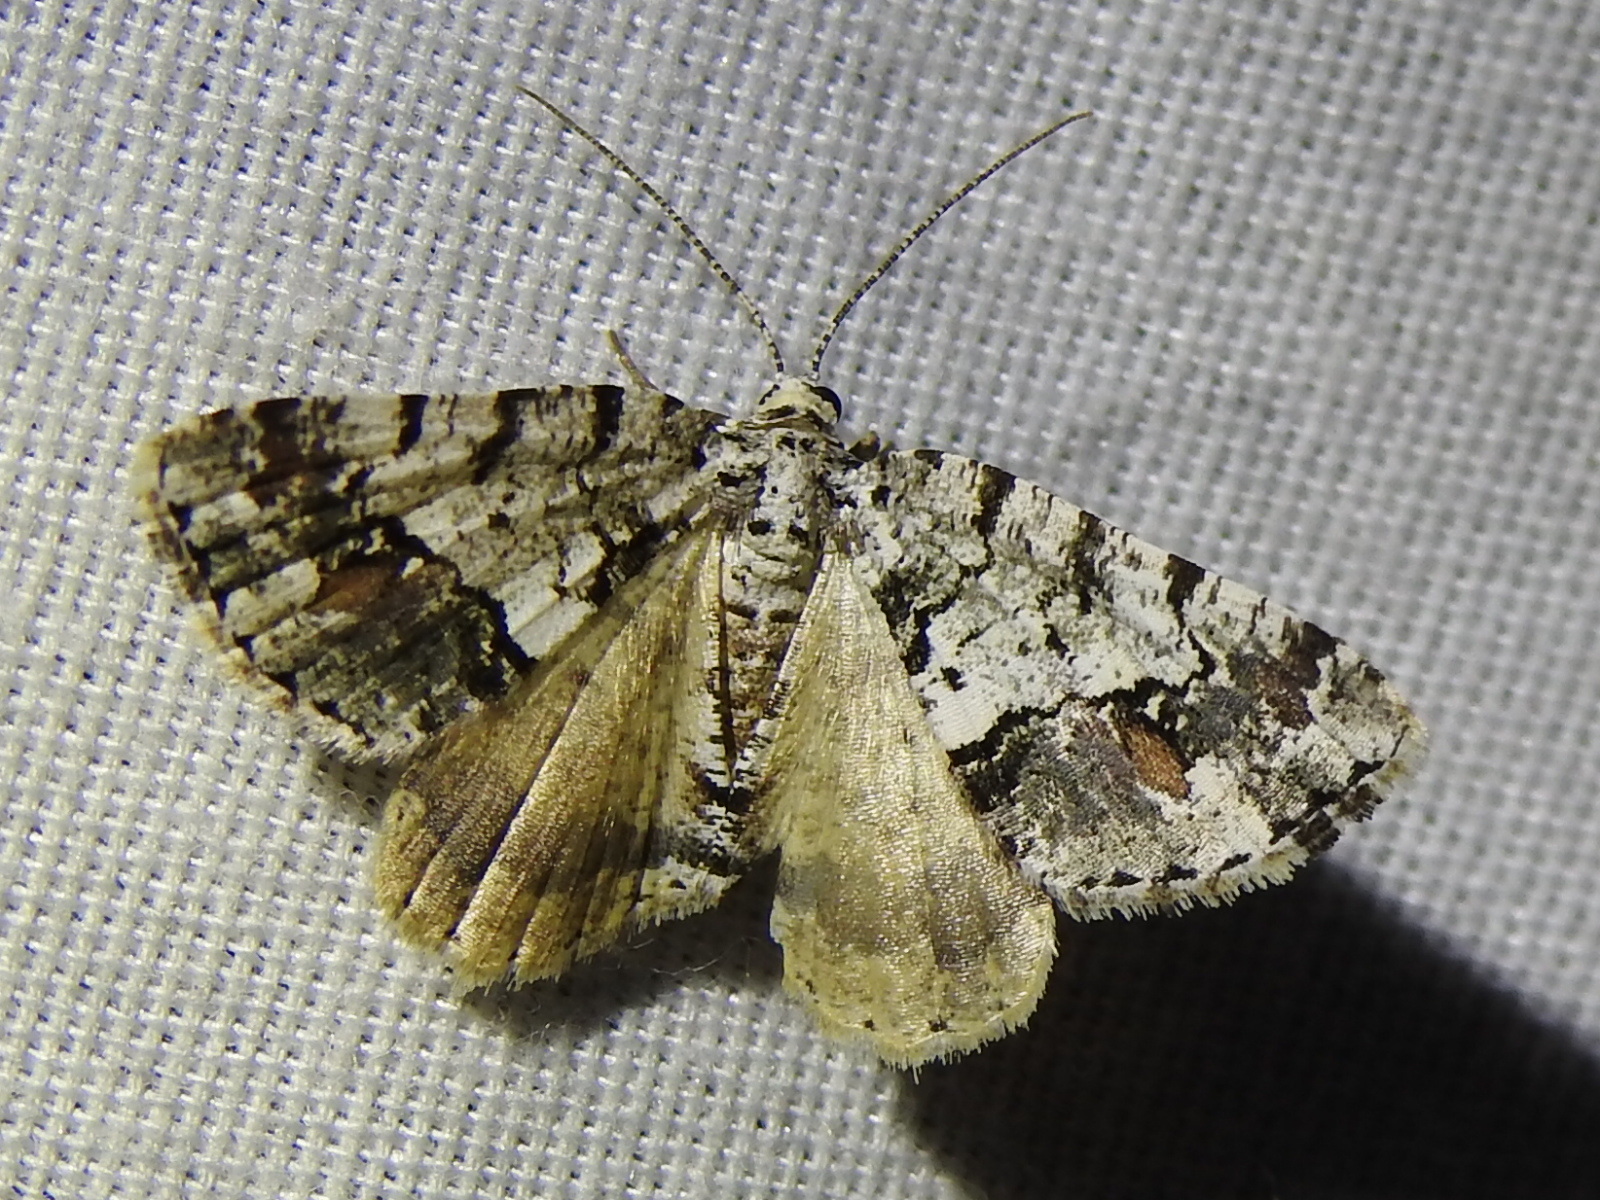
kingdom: Animalia
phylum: Arthropoda
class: Insecta
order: Lepidoptera
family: Geometridae
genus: Macaria
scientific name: Macaria graphidaria
